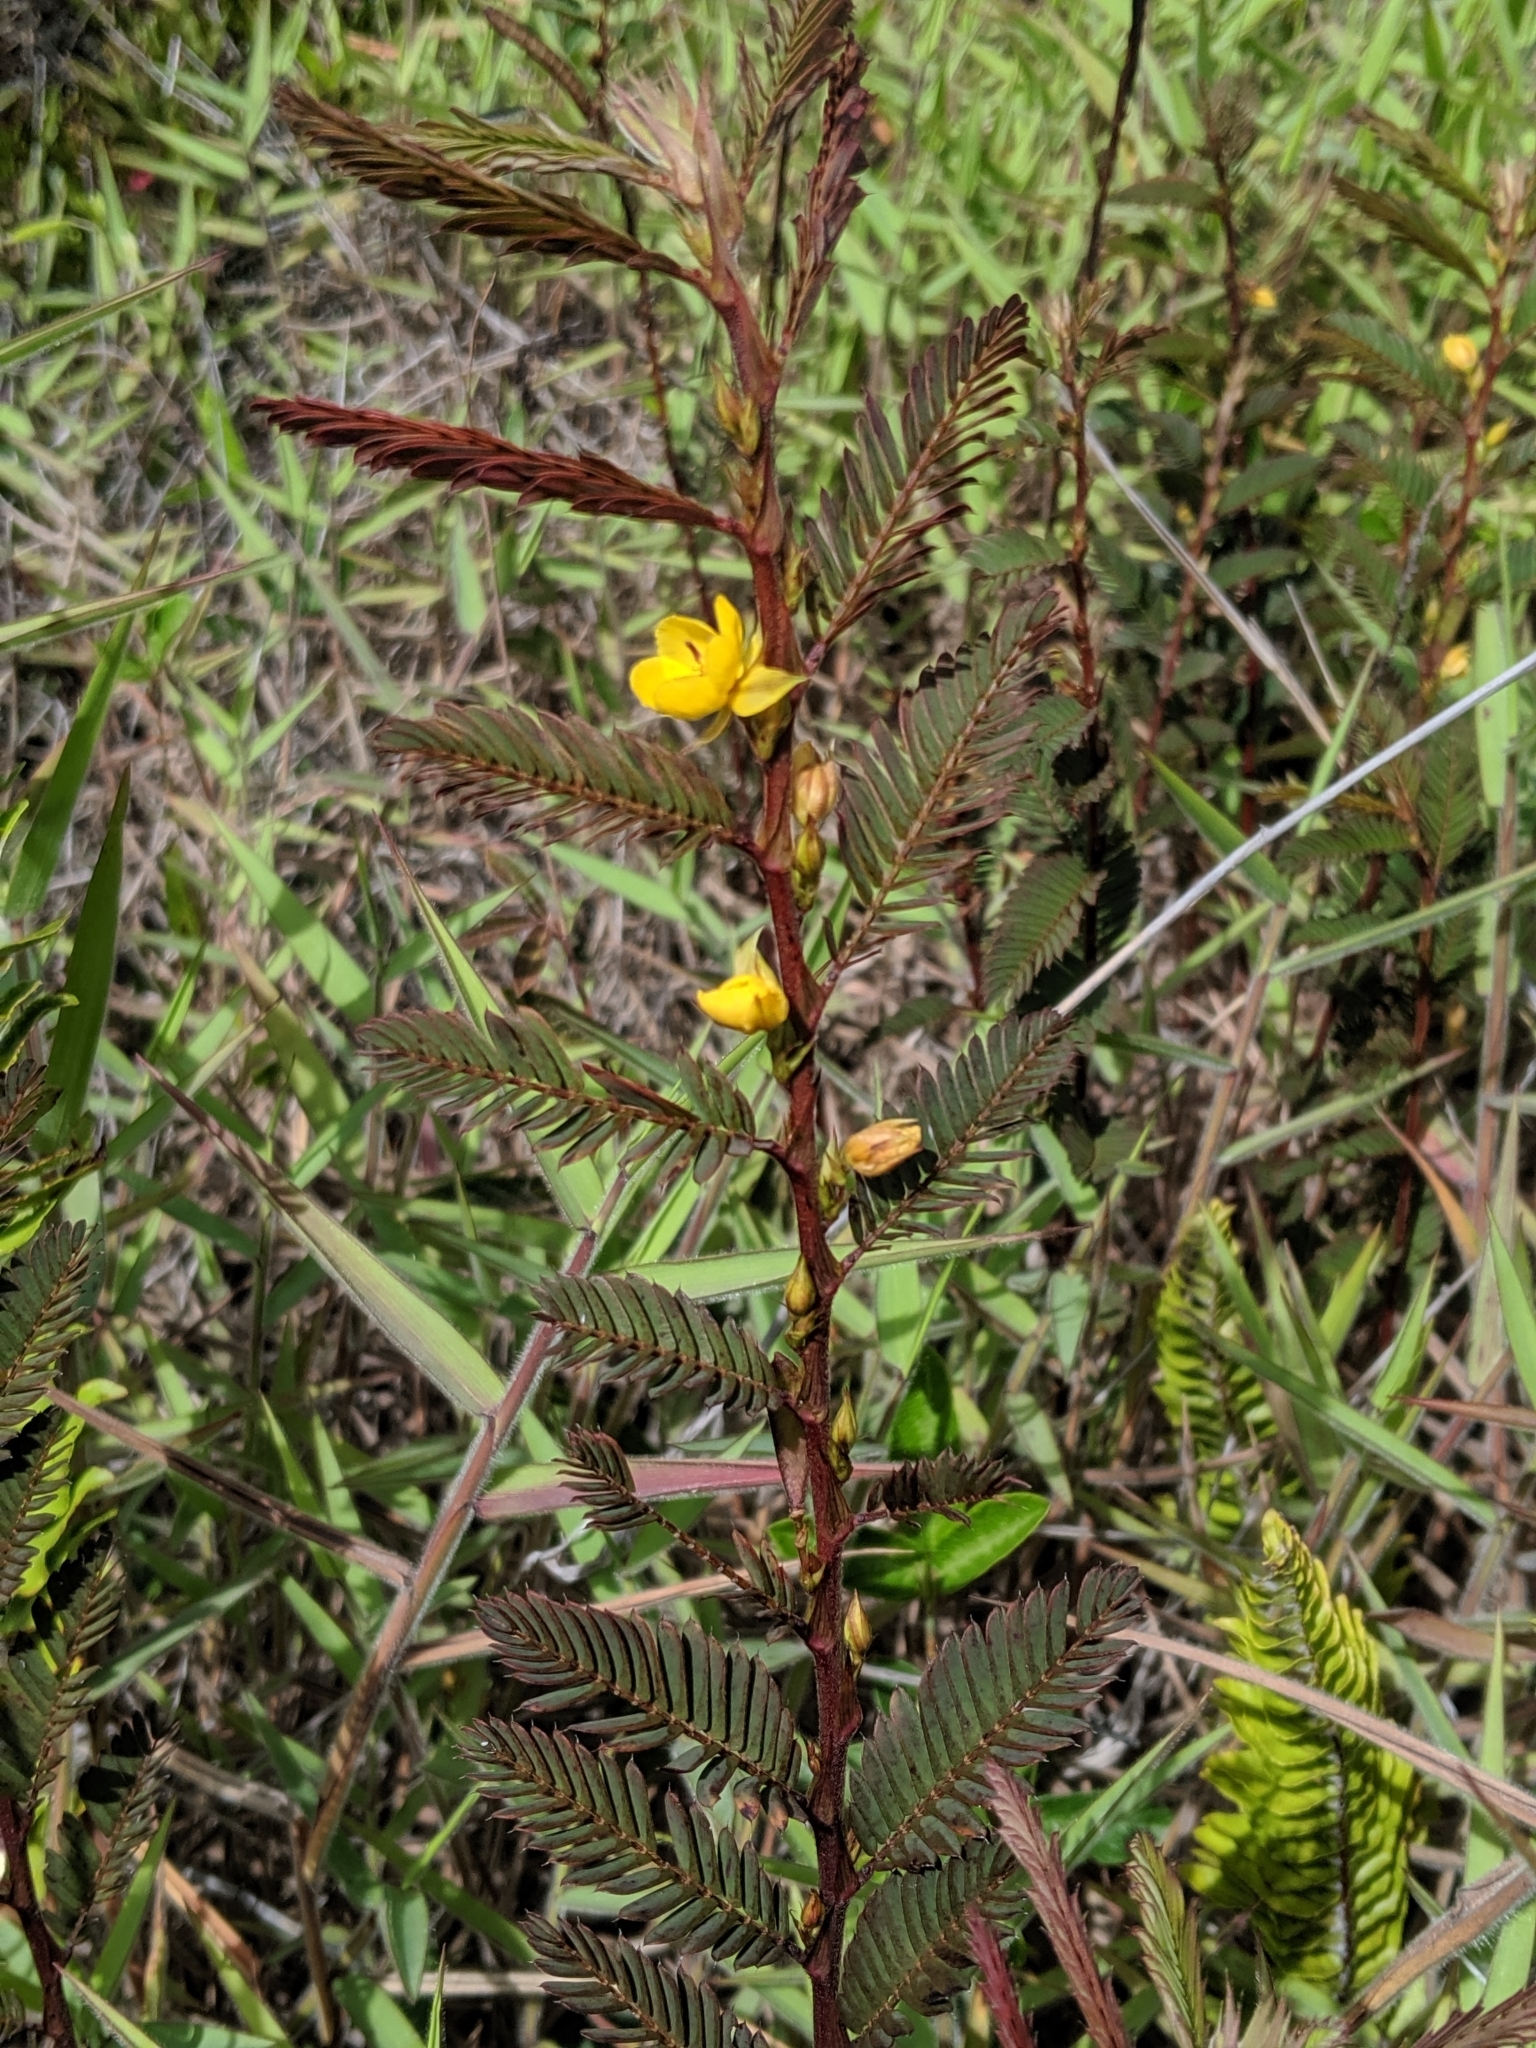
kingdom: Plantae
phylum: Tracheophyta
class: Magnoliopsida
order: Fabales
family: Fabaceae
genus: Chamaecrista
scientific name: Chamaecrista nictitans
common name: Sensitive cassia
